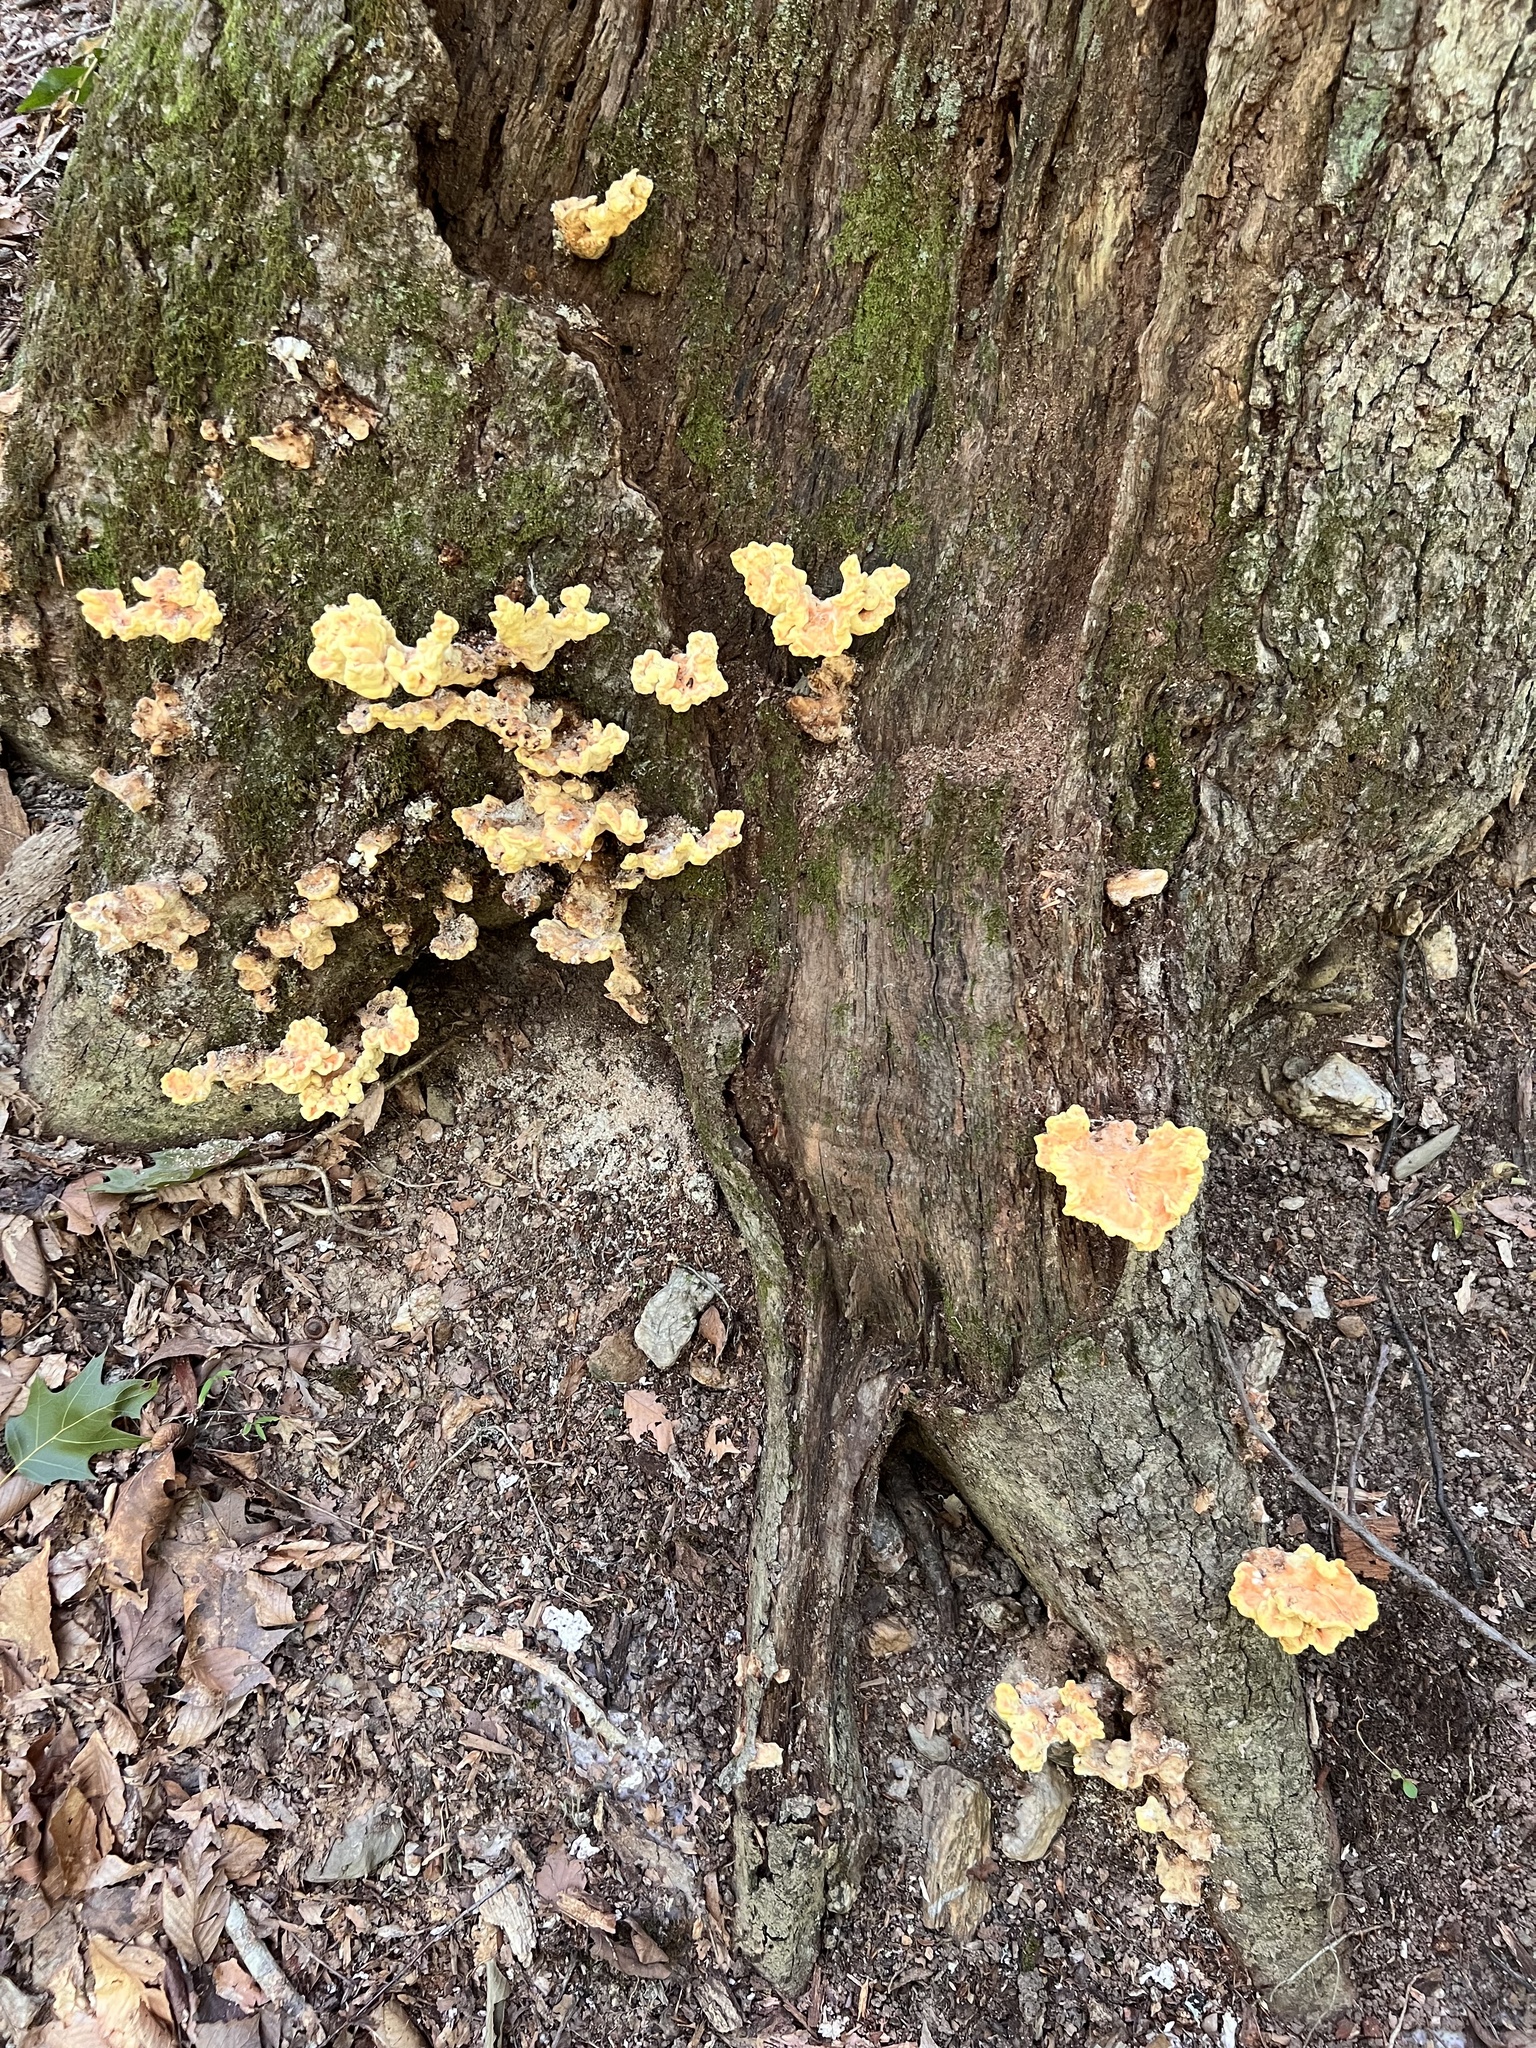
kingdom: Fungi
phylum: Basidiomycota
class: Agaricomycetes
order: Polyporales
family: Laetiporaceae
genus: Laetiporus
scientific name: Laetiporus sulphureus
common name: Chicken of the woods
